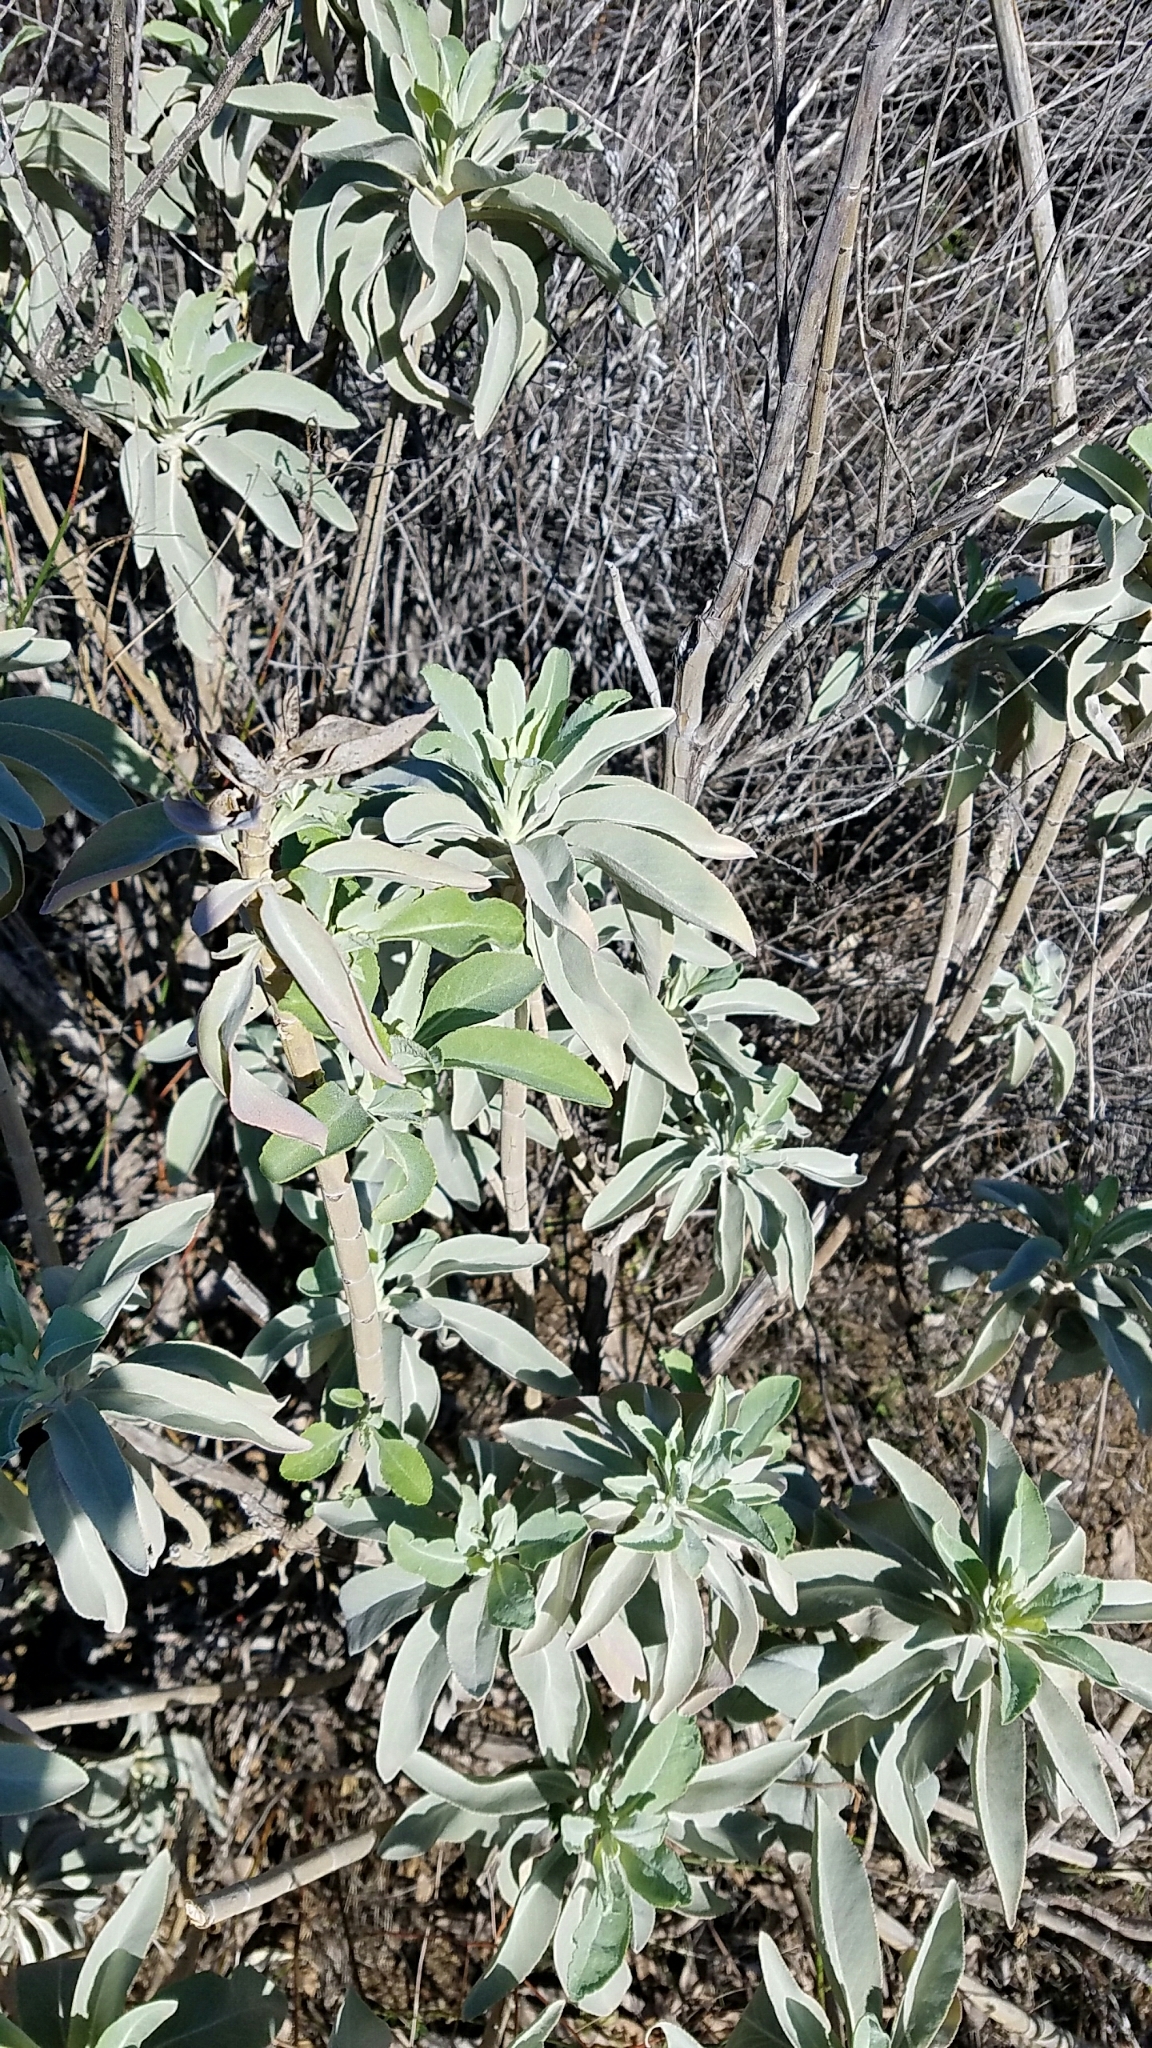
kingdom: Plantae
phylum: Tracheophyta
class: Magnoliopsida
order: Lamiales
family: Lamiaceae
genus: Salvia
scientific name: Salvia apiana
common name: White sage
